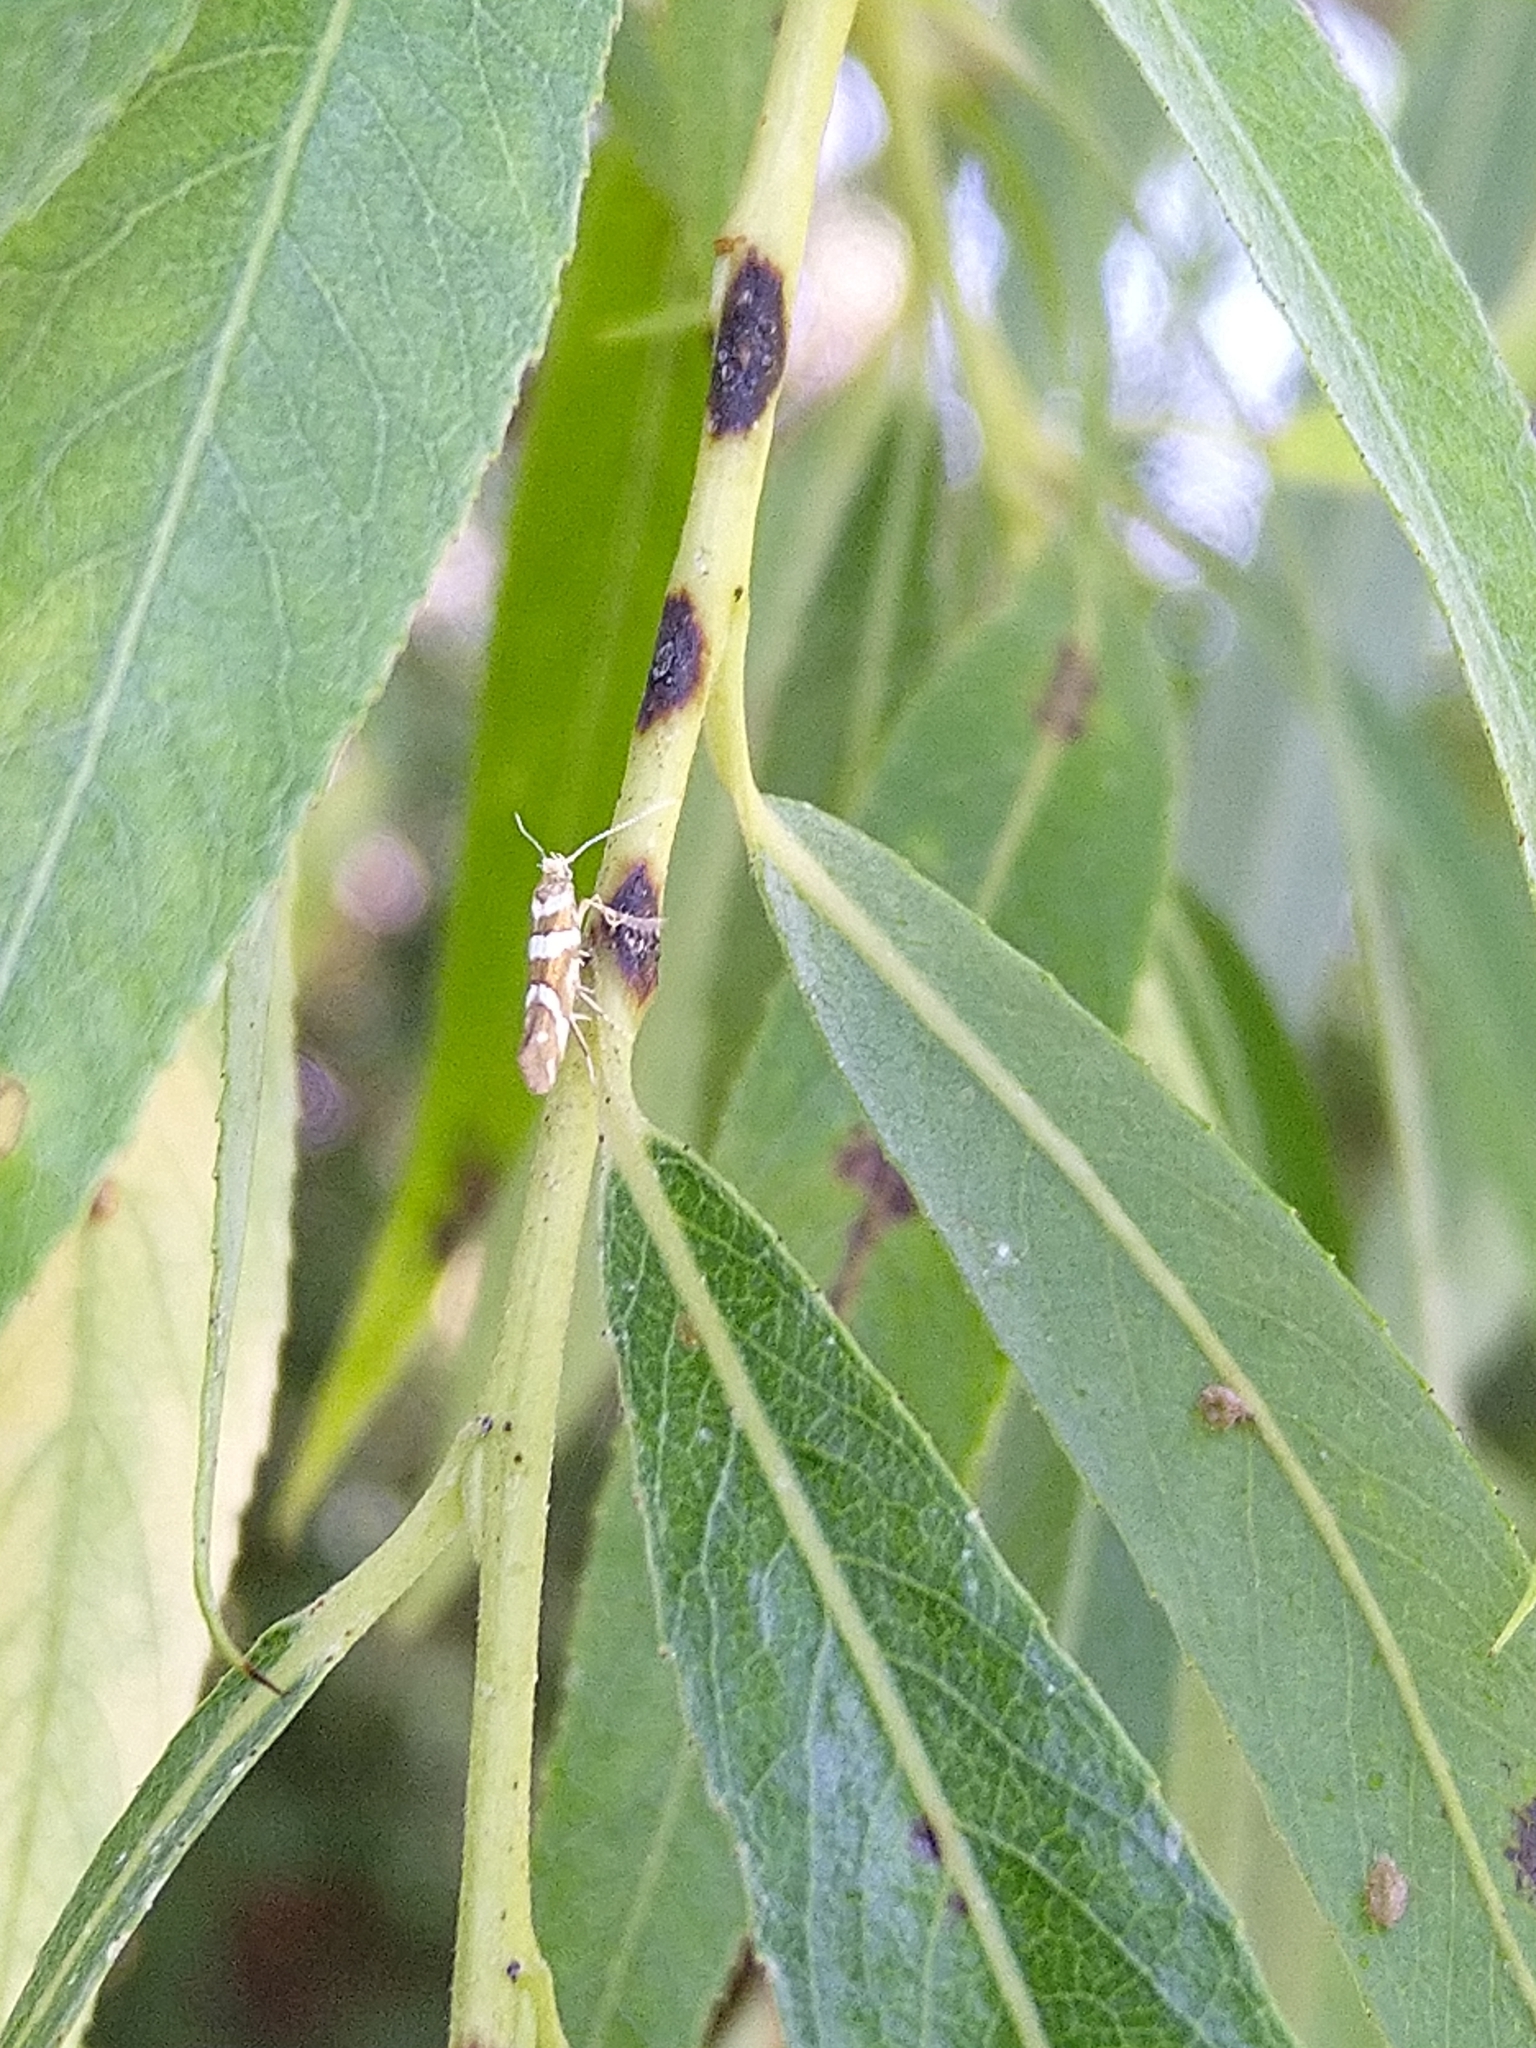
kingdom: Animalia
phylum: Arthropoda
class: Insecta
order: Lepidoptera
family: Argyresthiidae
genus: Argyresthia
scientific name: Argyresthia goedartella
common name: Golden argent
